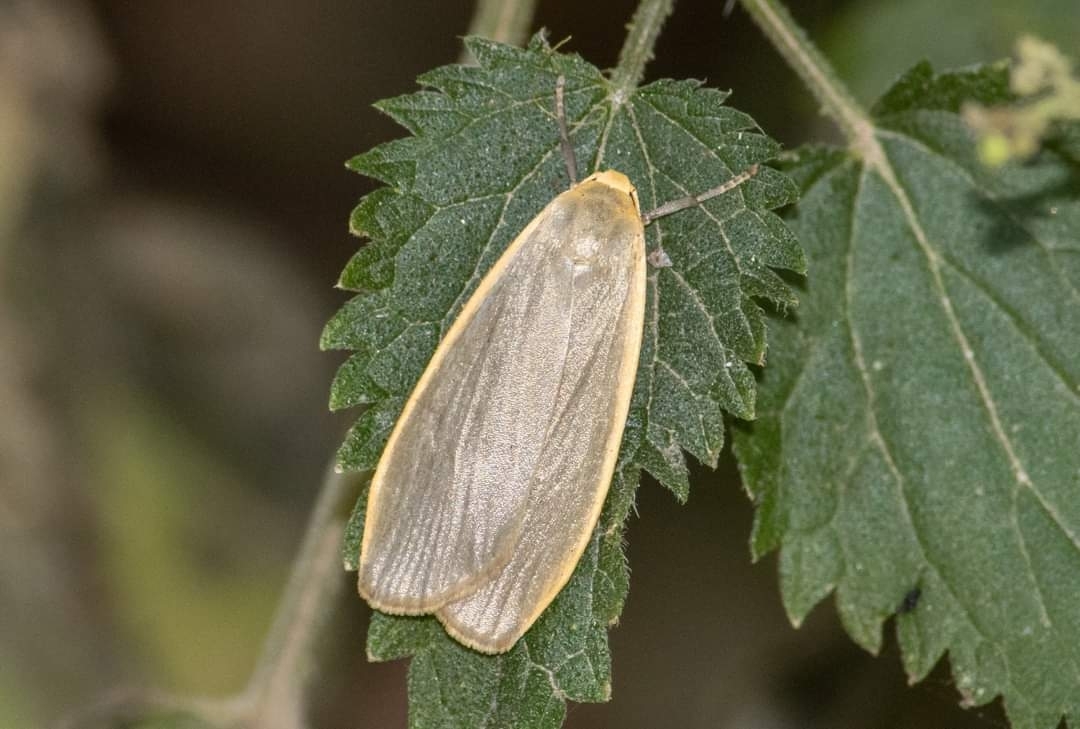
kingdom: Animalia
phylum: Arthropoda
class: Insecta
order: Lepidoptera
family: Erebidae
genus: Collita
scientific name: Collita griseola
